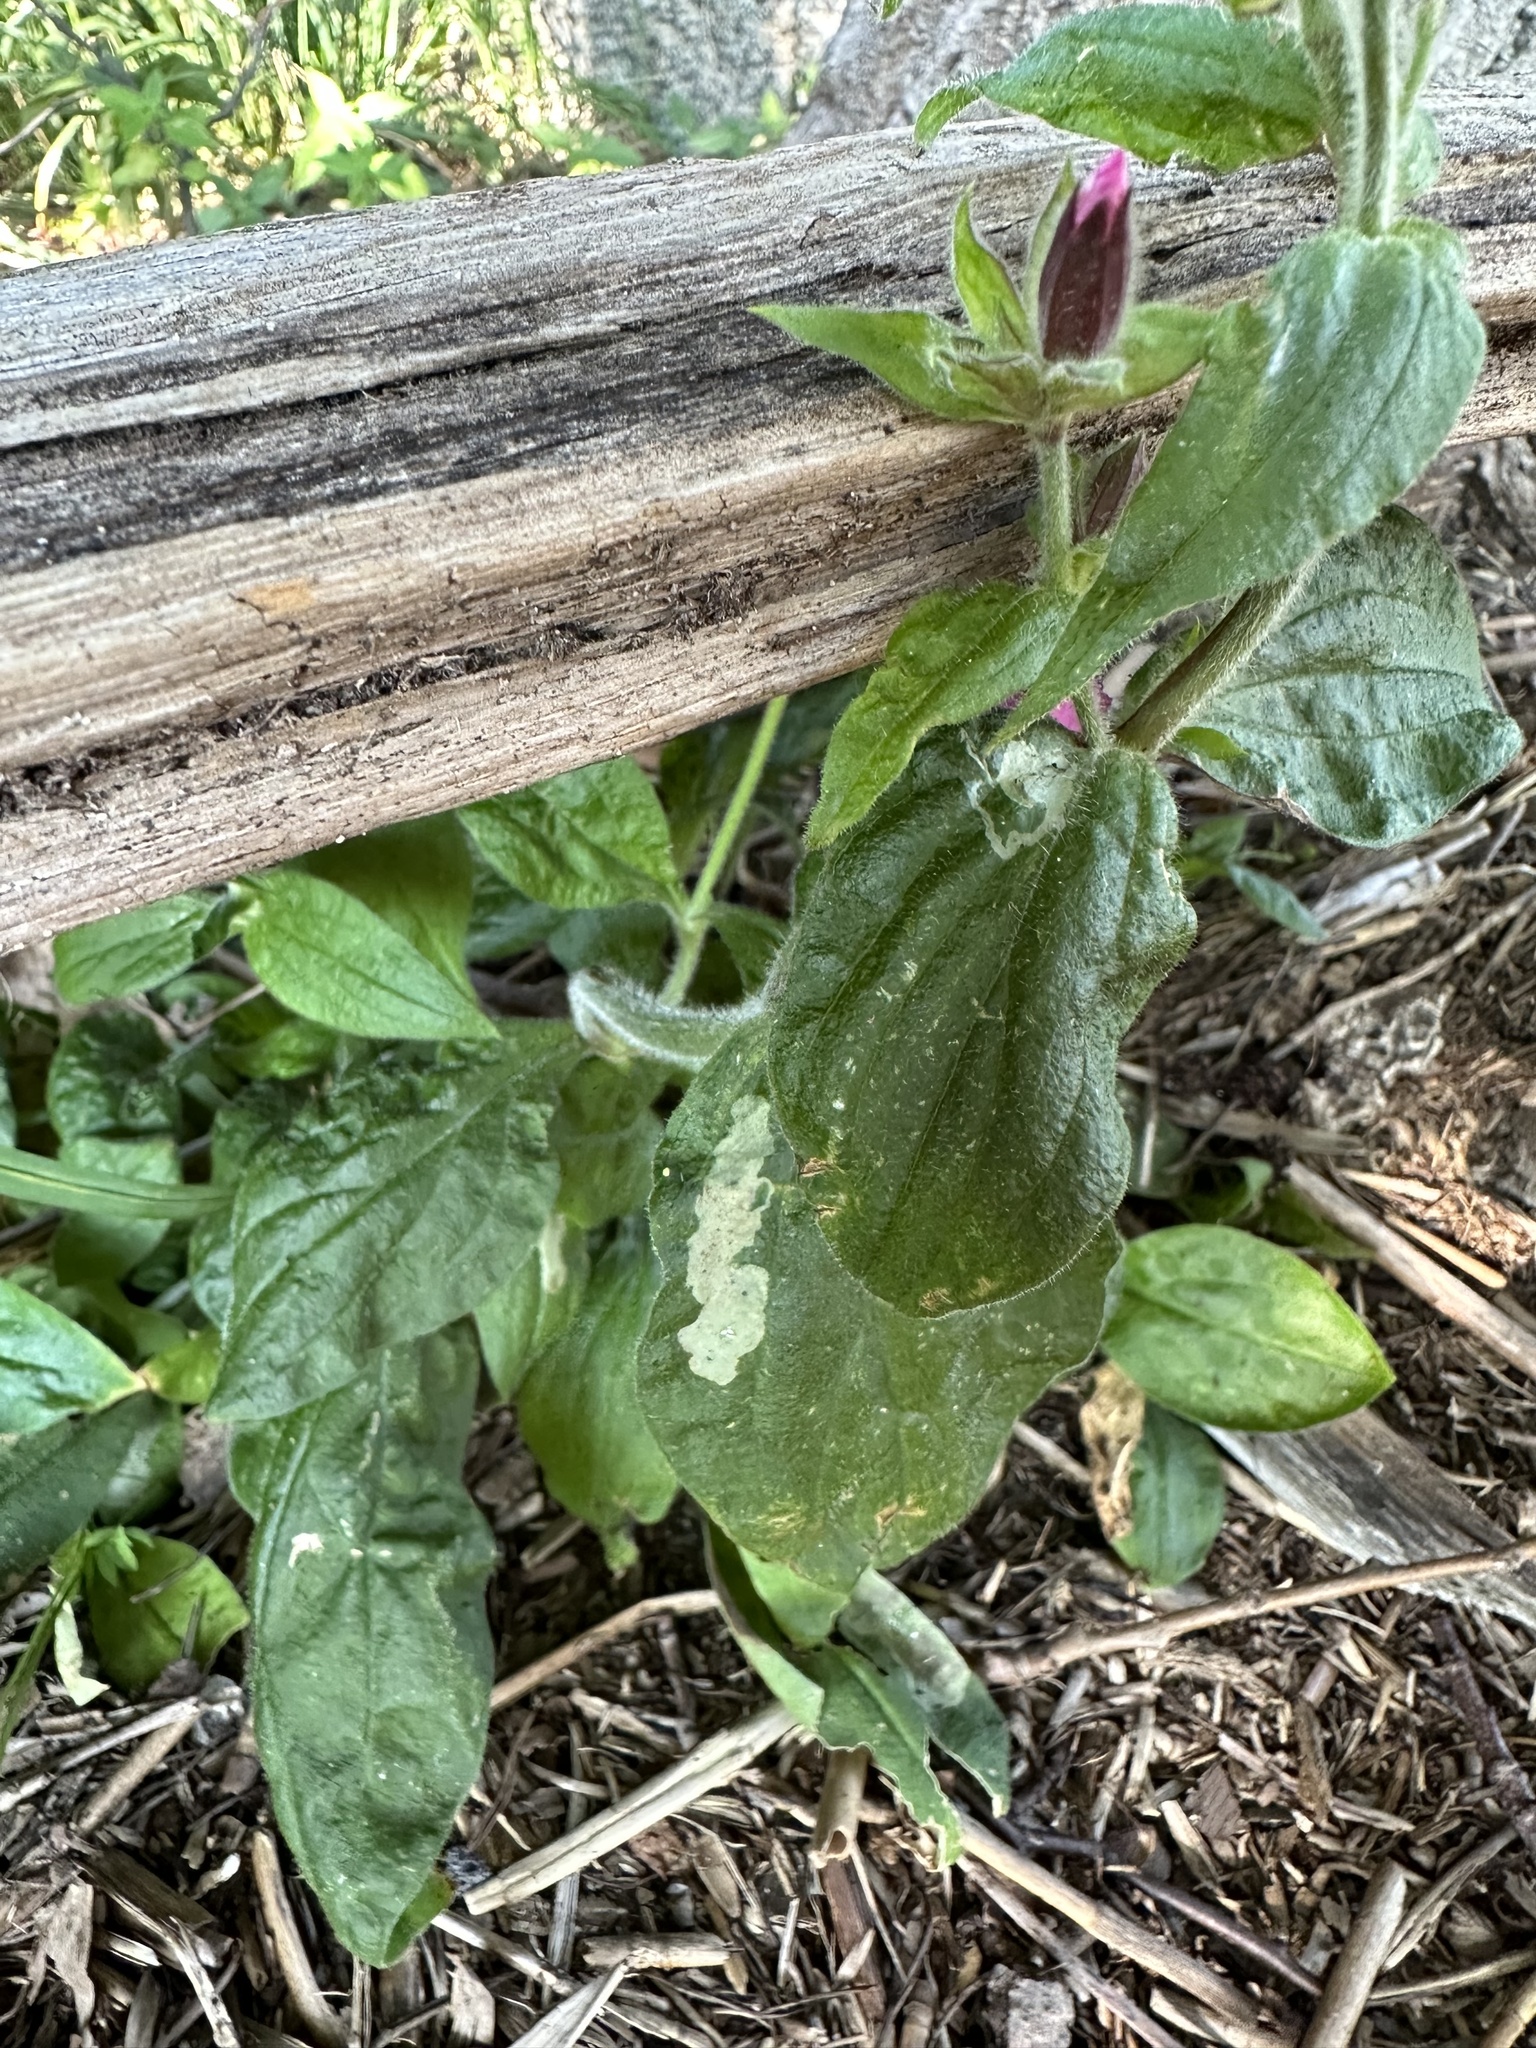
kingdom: Plantae
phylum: Tracheophyta
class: Magnoliopsida
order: Caryophyllales
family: Caryophyllaceae
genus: Silene
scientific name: Silene dioica
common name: Red campion
